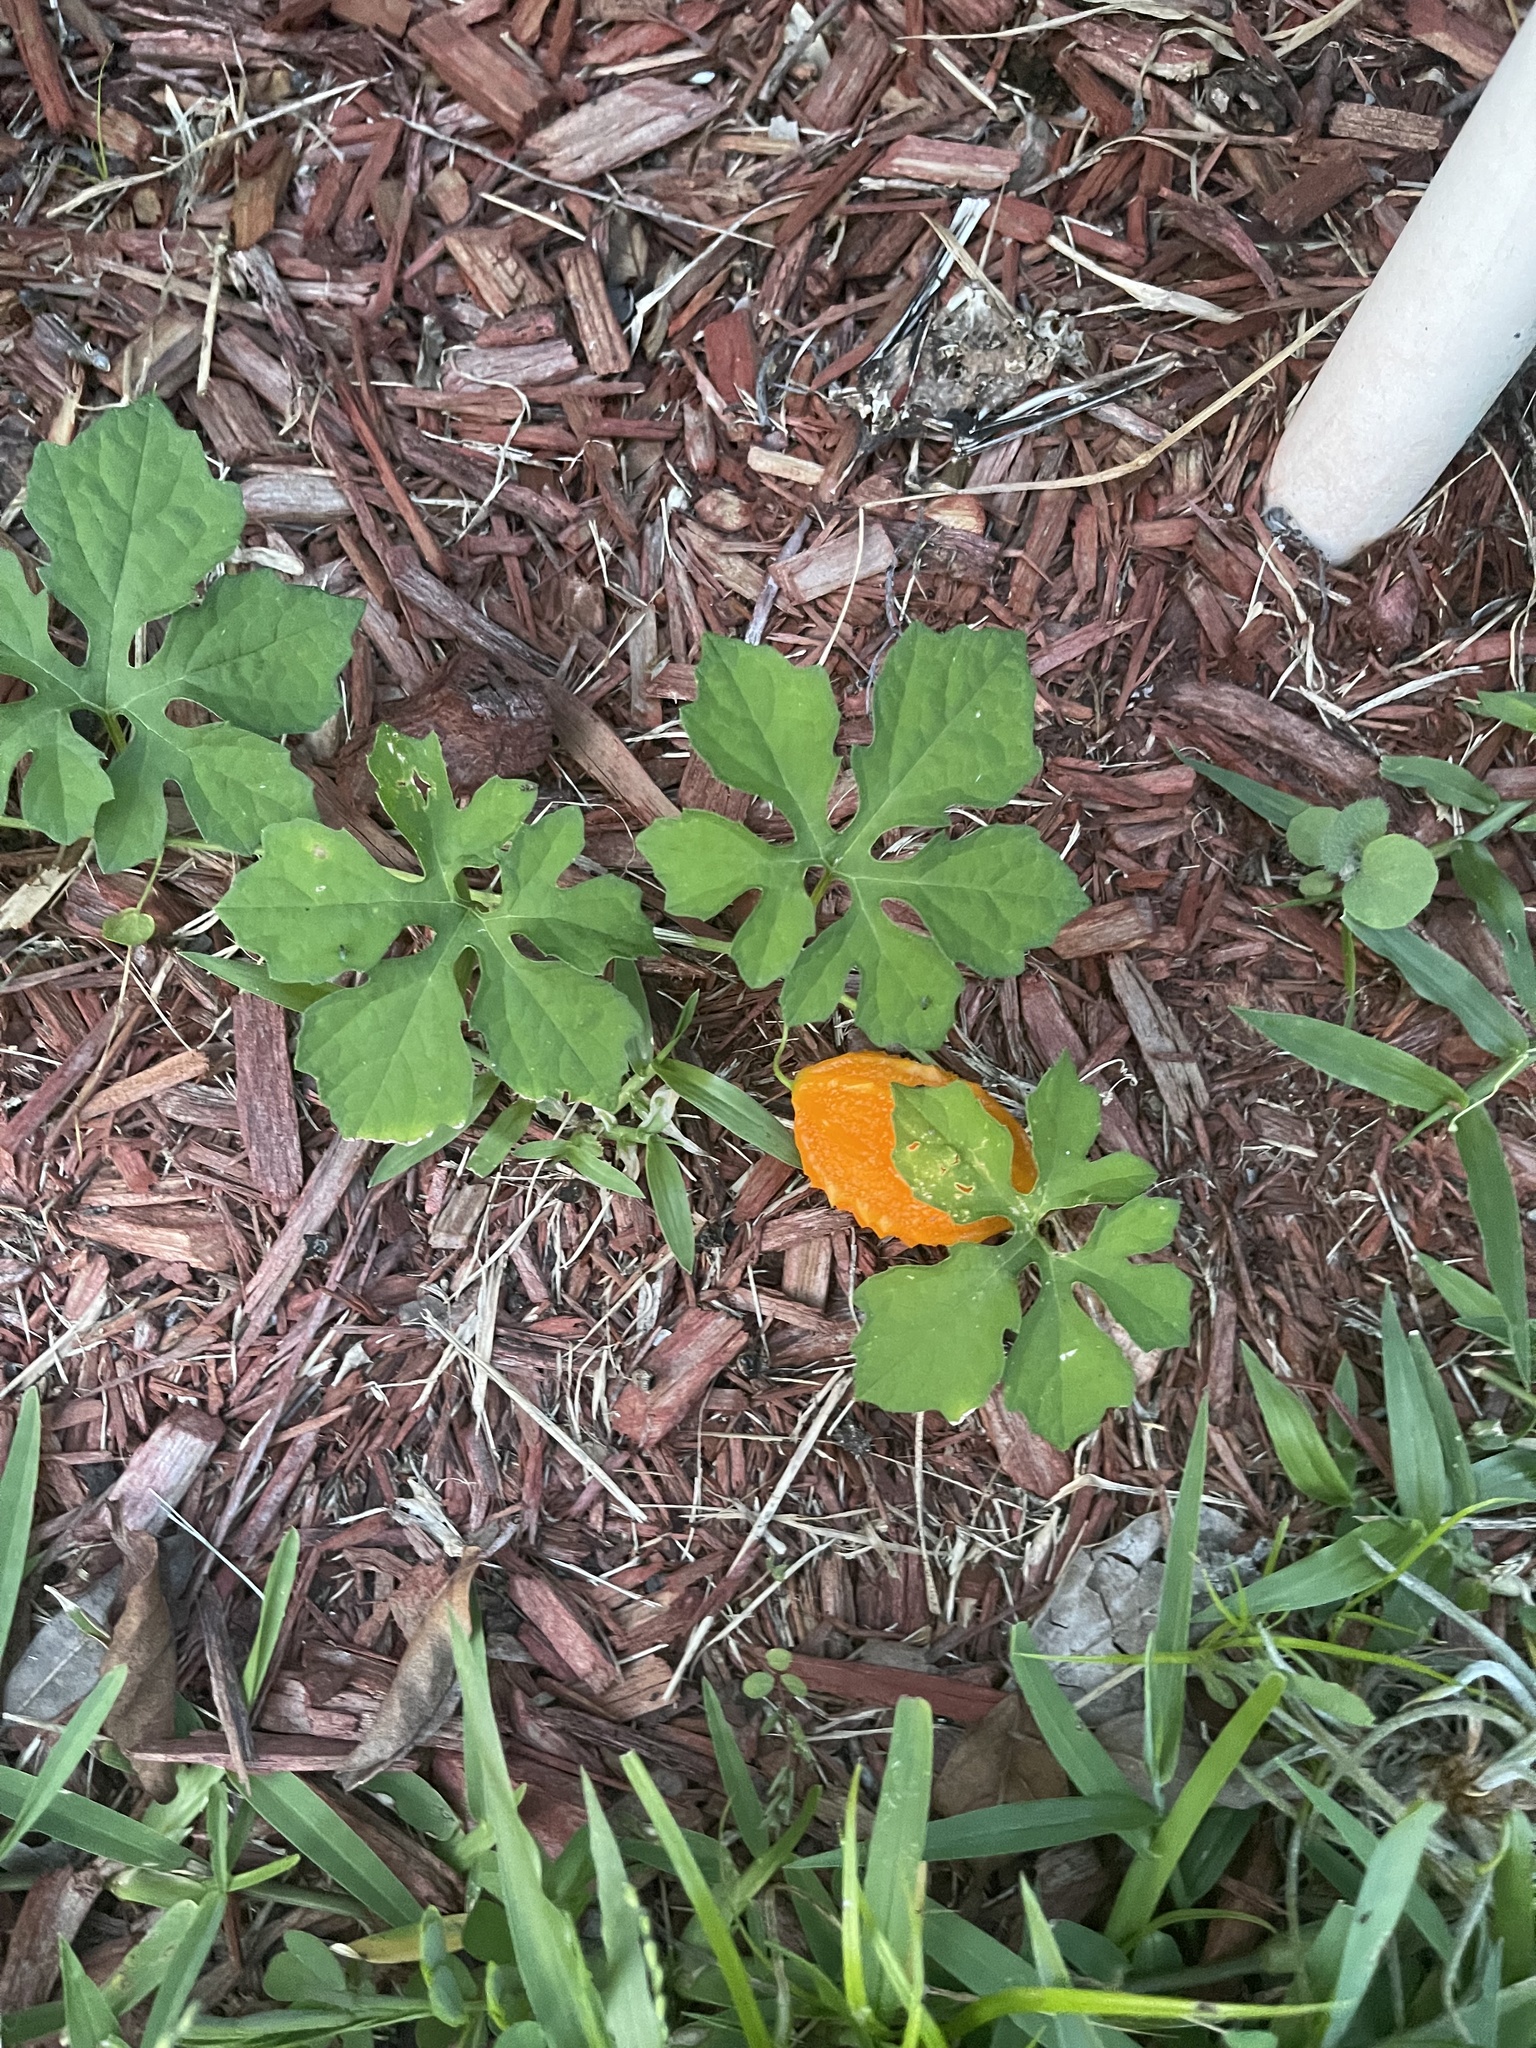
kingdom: Plantae
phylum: Tracheophyta
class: Magnoliopsida
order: Cucurbitales
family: Cucurbitaceae
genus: Momordica
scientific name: Momordica charantia
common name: Balsampear
